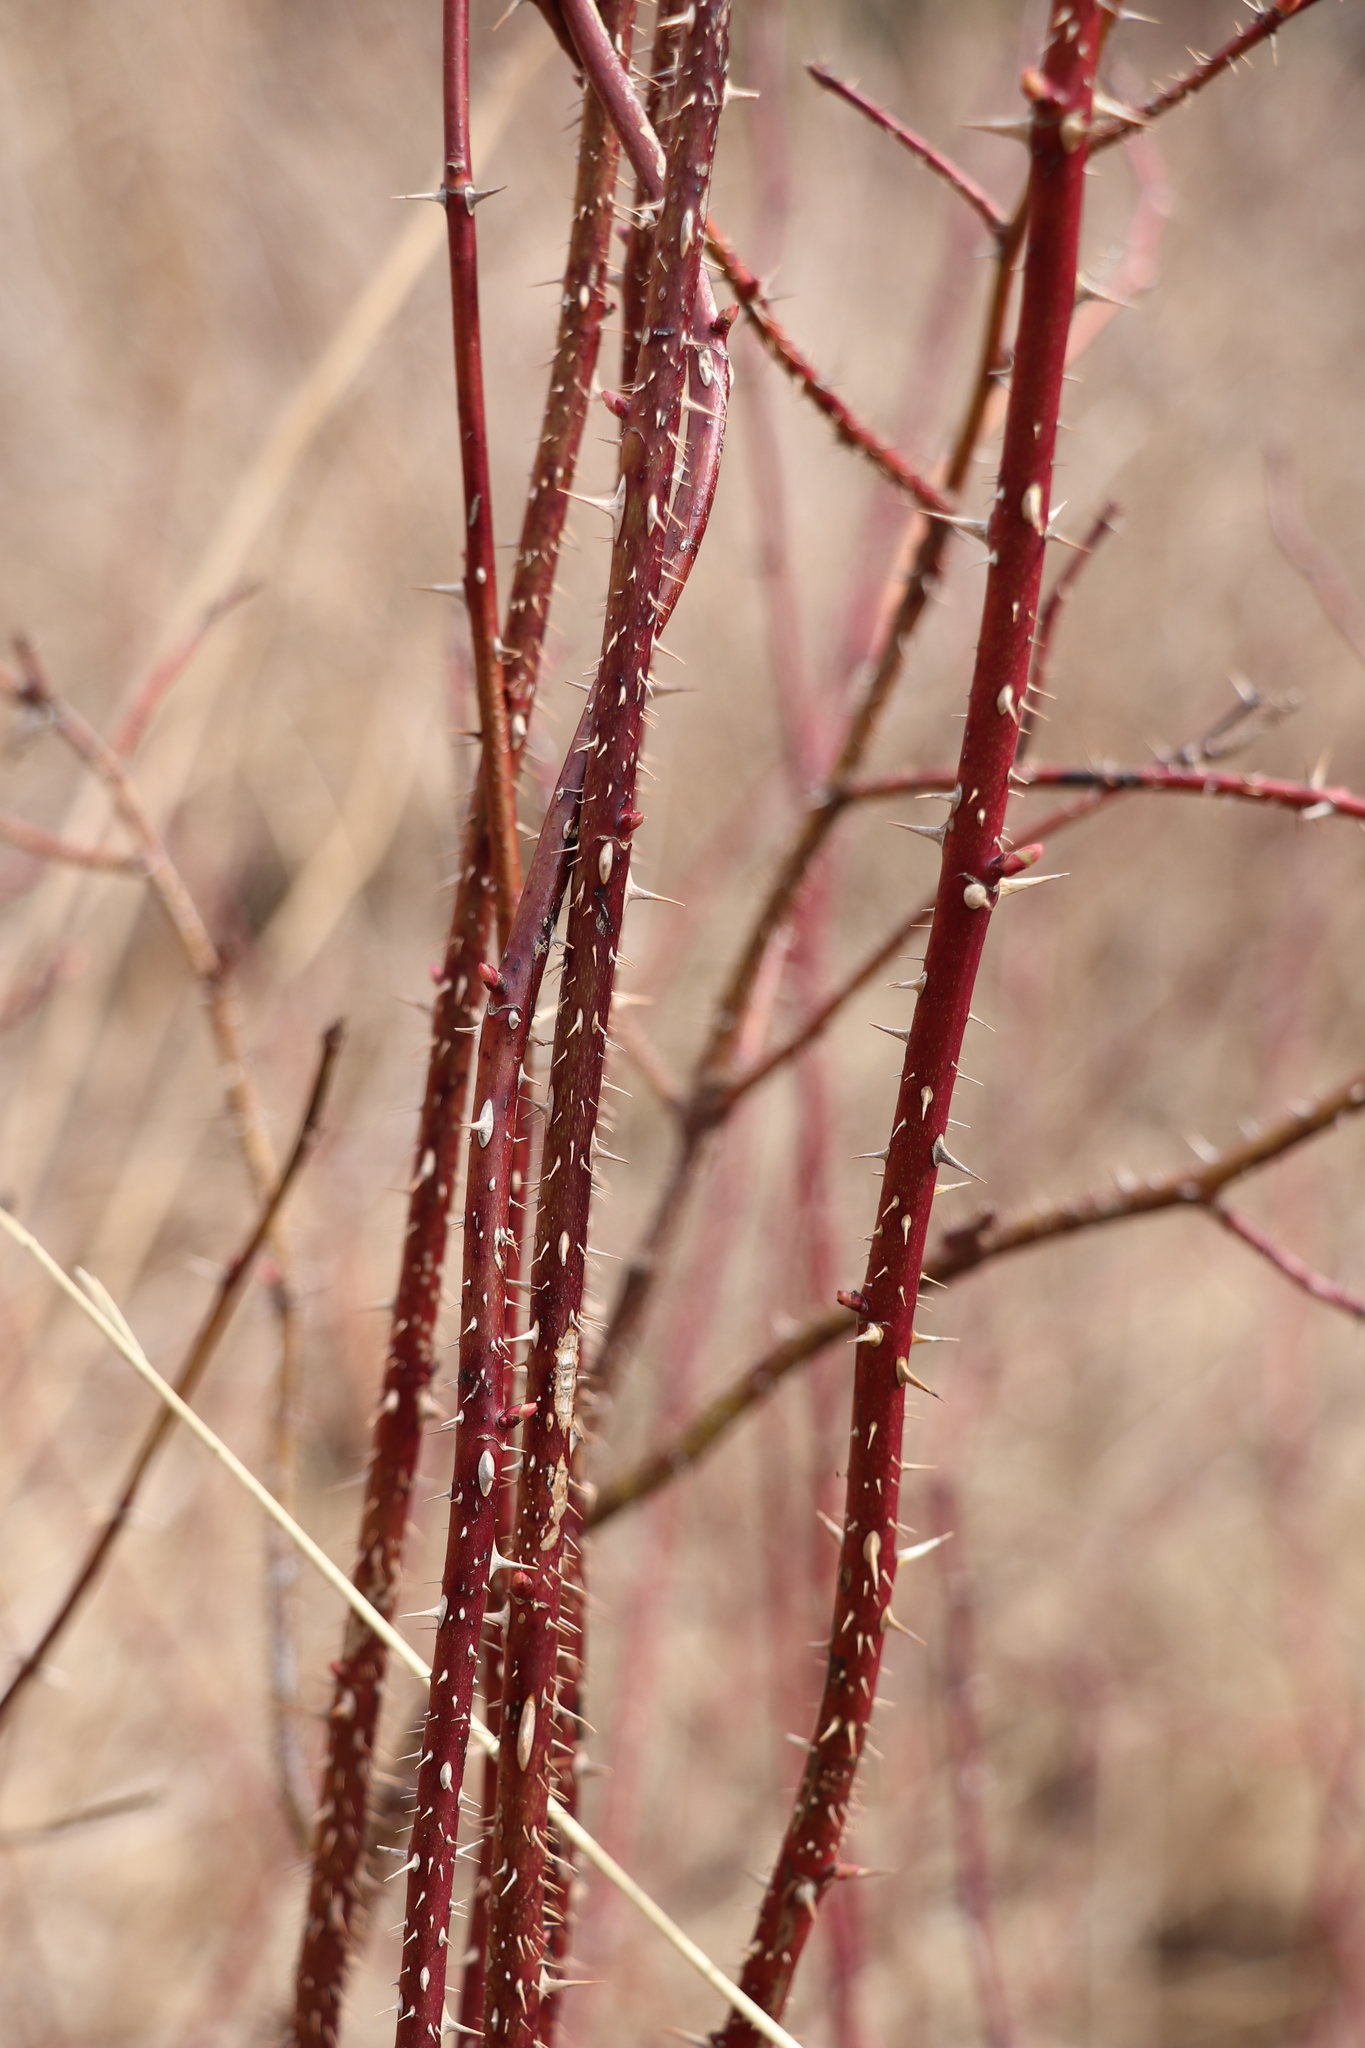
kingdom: Plantae
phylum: Tracheophyta
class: Magnoliopsida
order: Rosales
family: Rosaceae
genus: Rosa
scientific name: Rosa majalis
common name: Cinnamon rose
